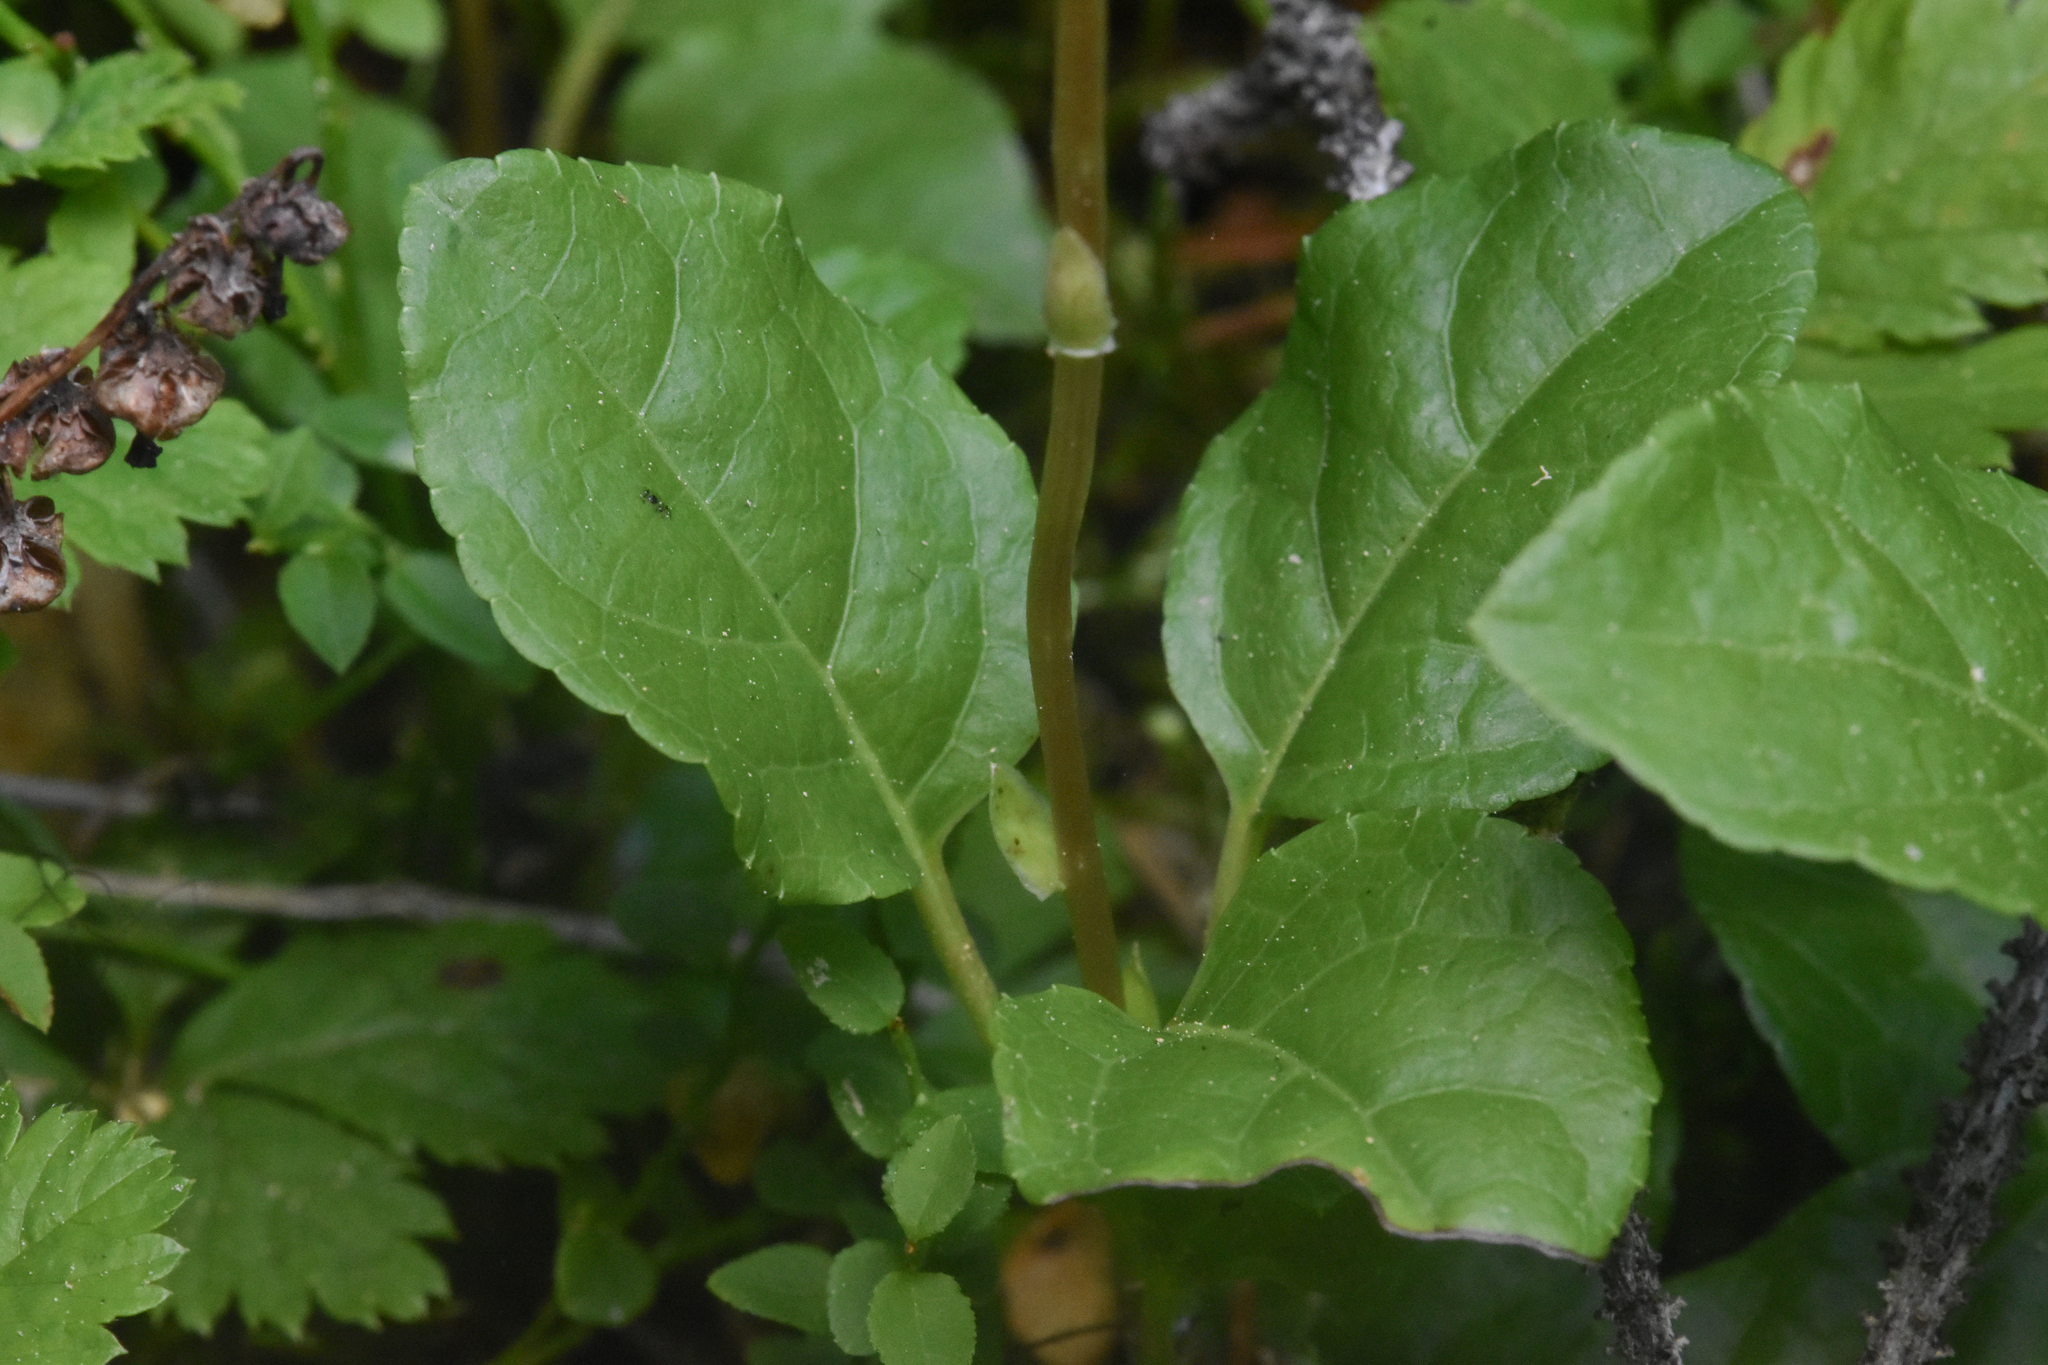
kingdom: Plantae
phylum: Tracheophyta
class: Magnoliopsida
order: Ericales
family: Ericaceae
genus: Orthilia
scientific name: Orthilia secunda
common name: One-sided orthilia
